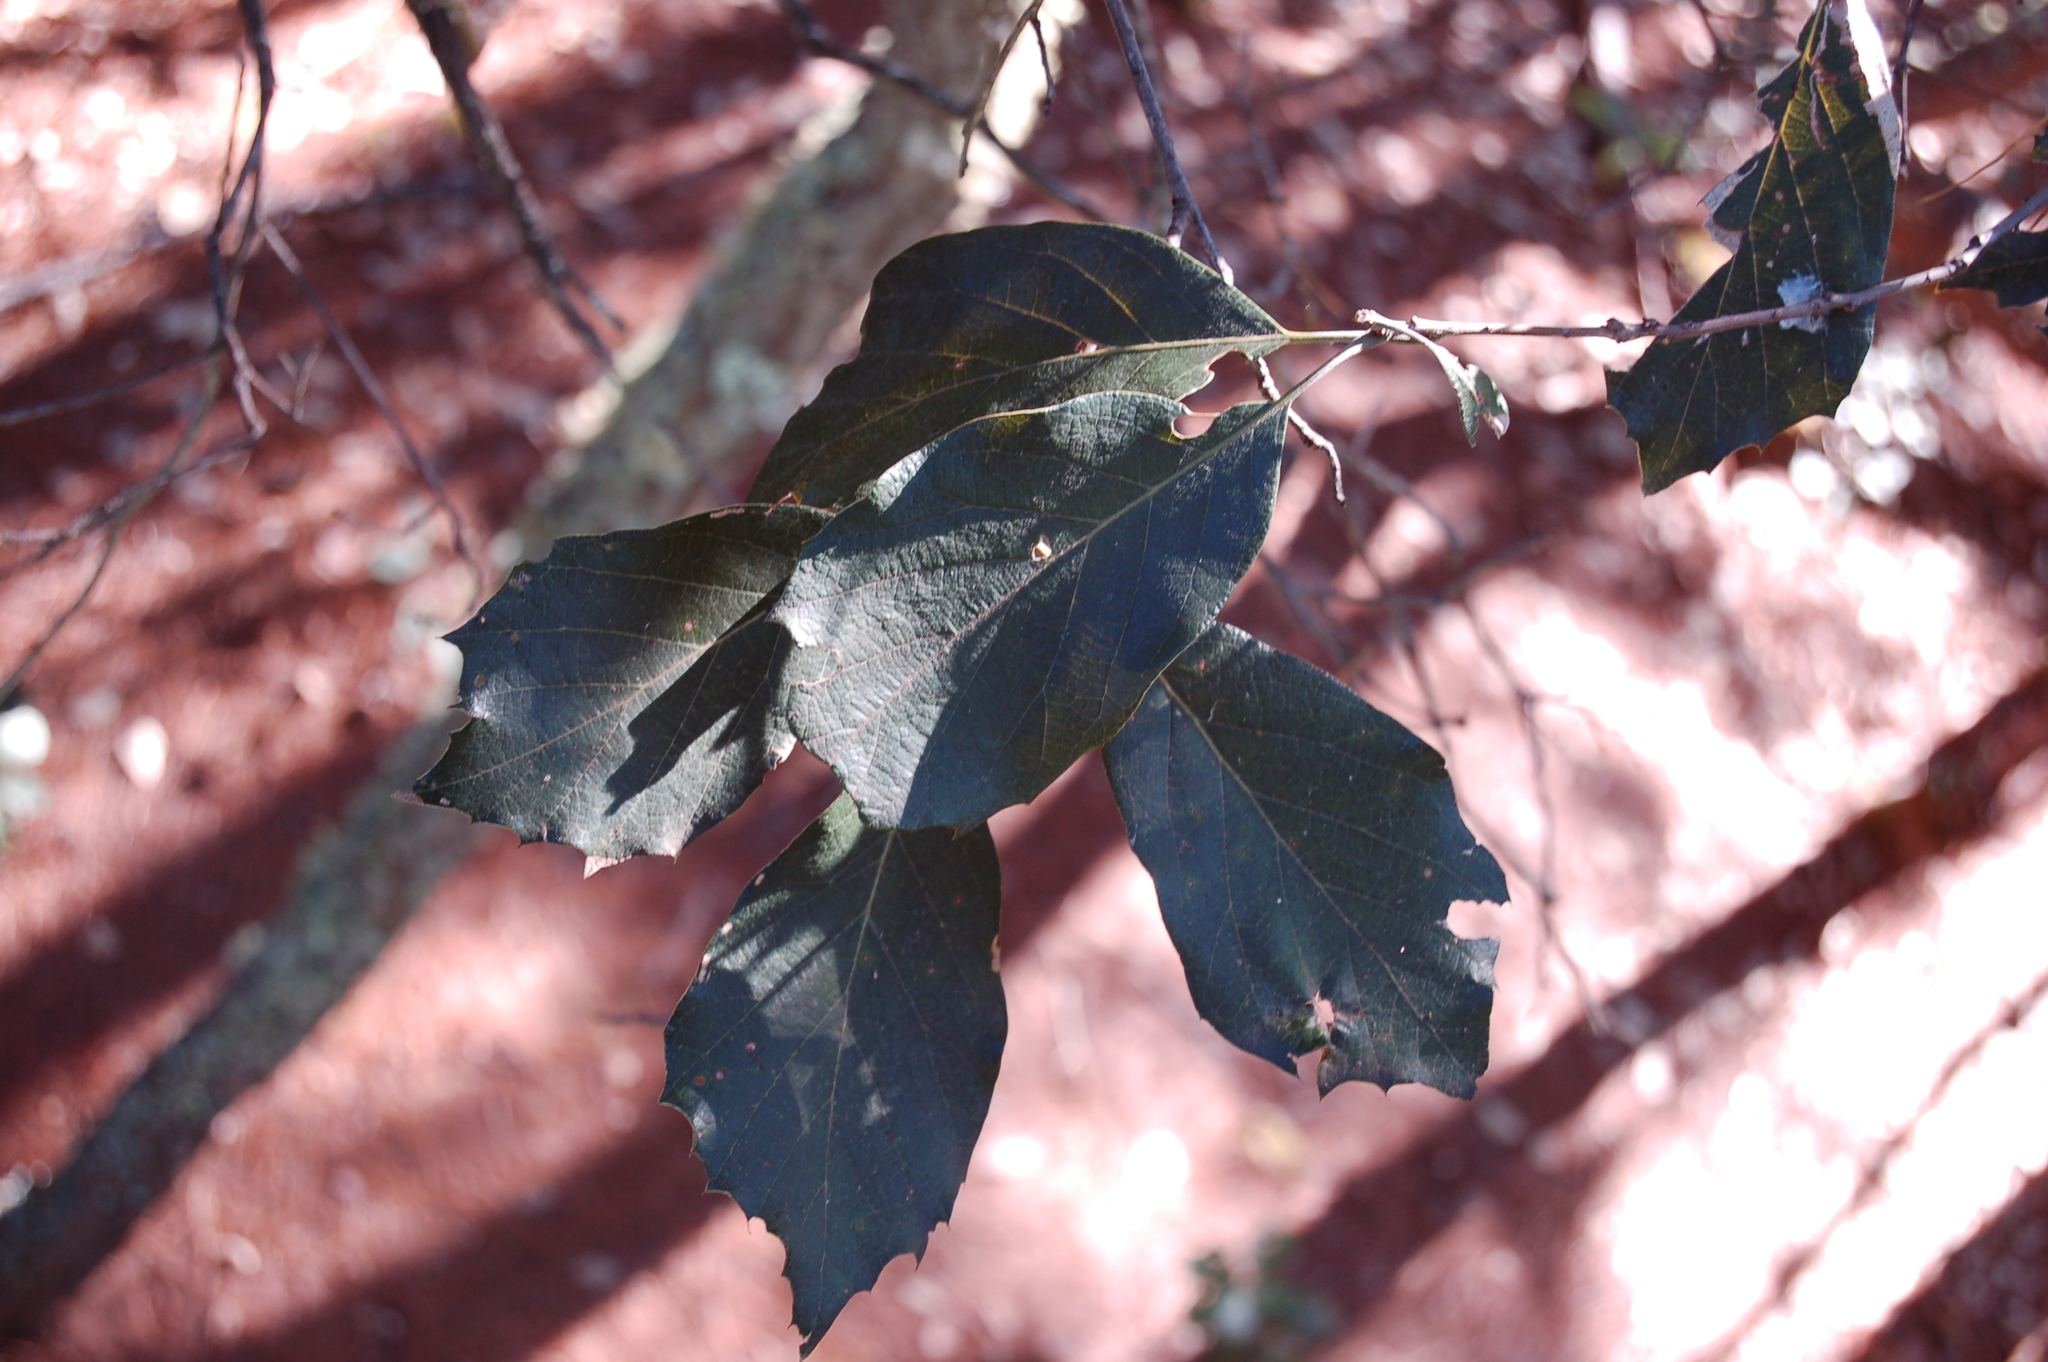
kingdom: Plantae
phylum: Tracheophyta
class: Magnoliopsida
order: Fagales
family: Fagaceae
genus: Quercus
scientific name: Quercus scytophylla
